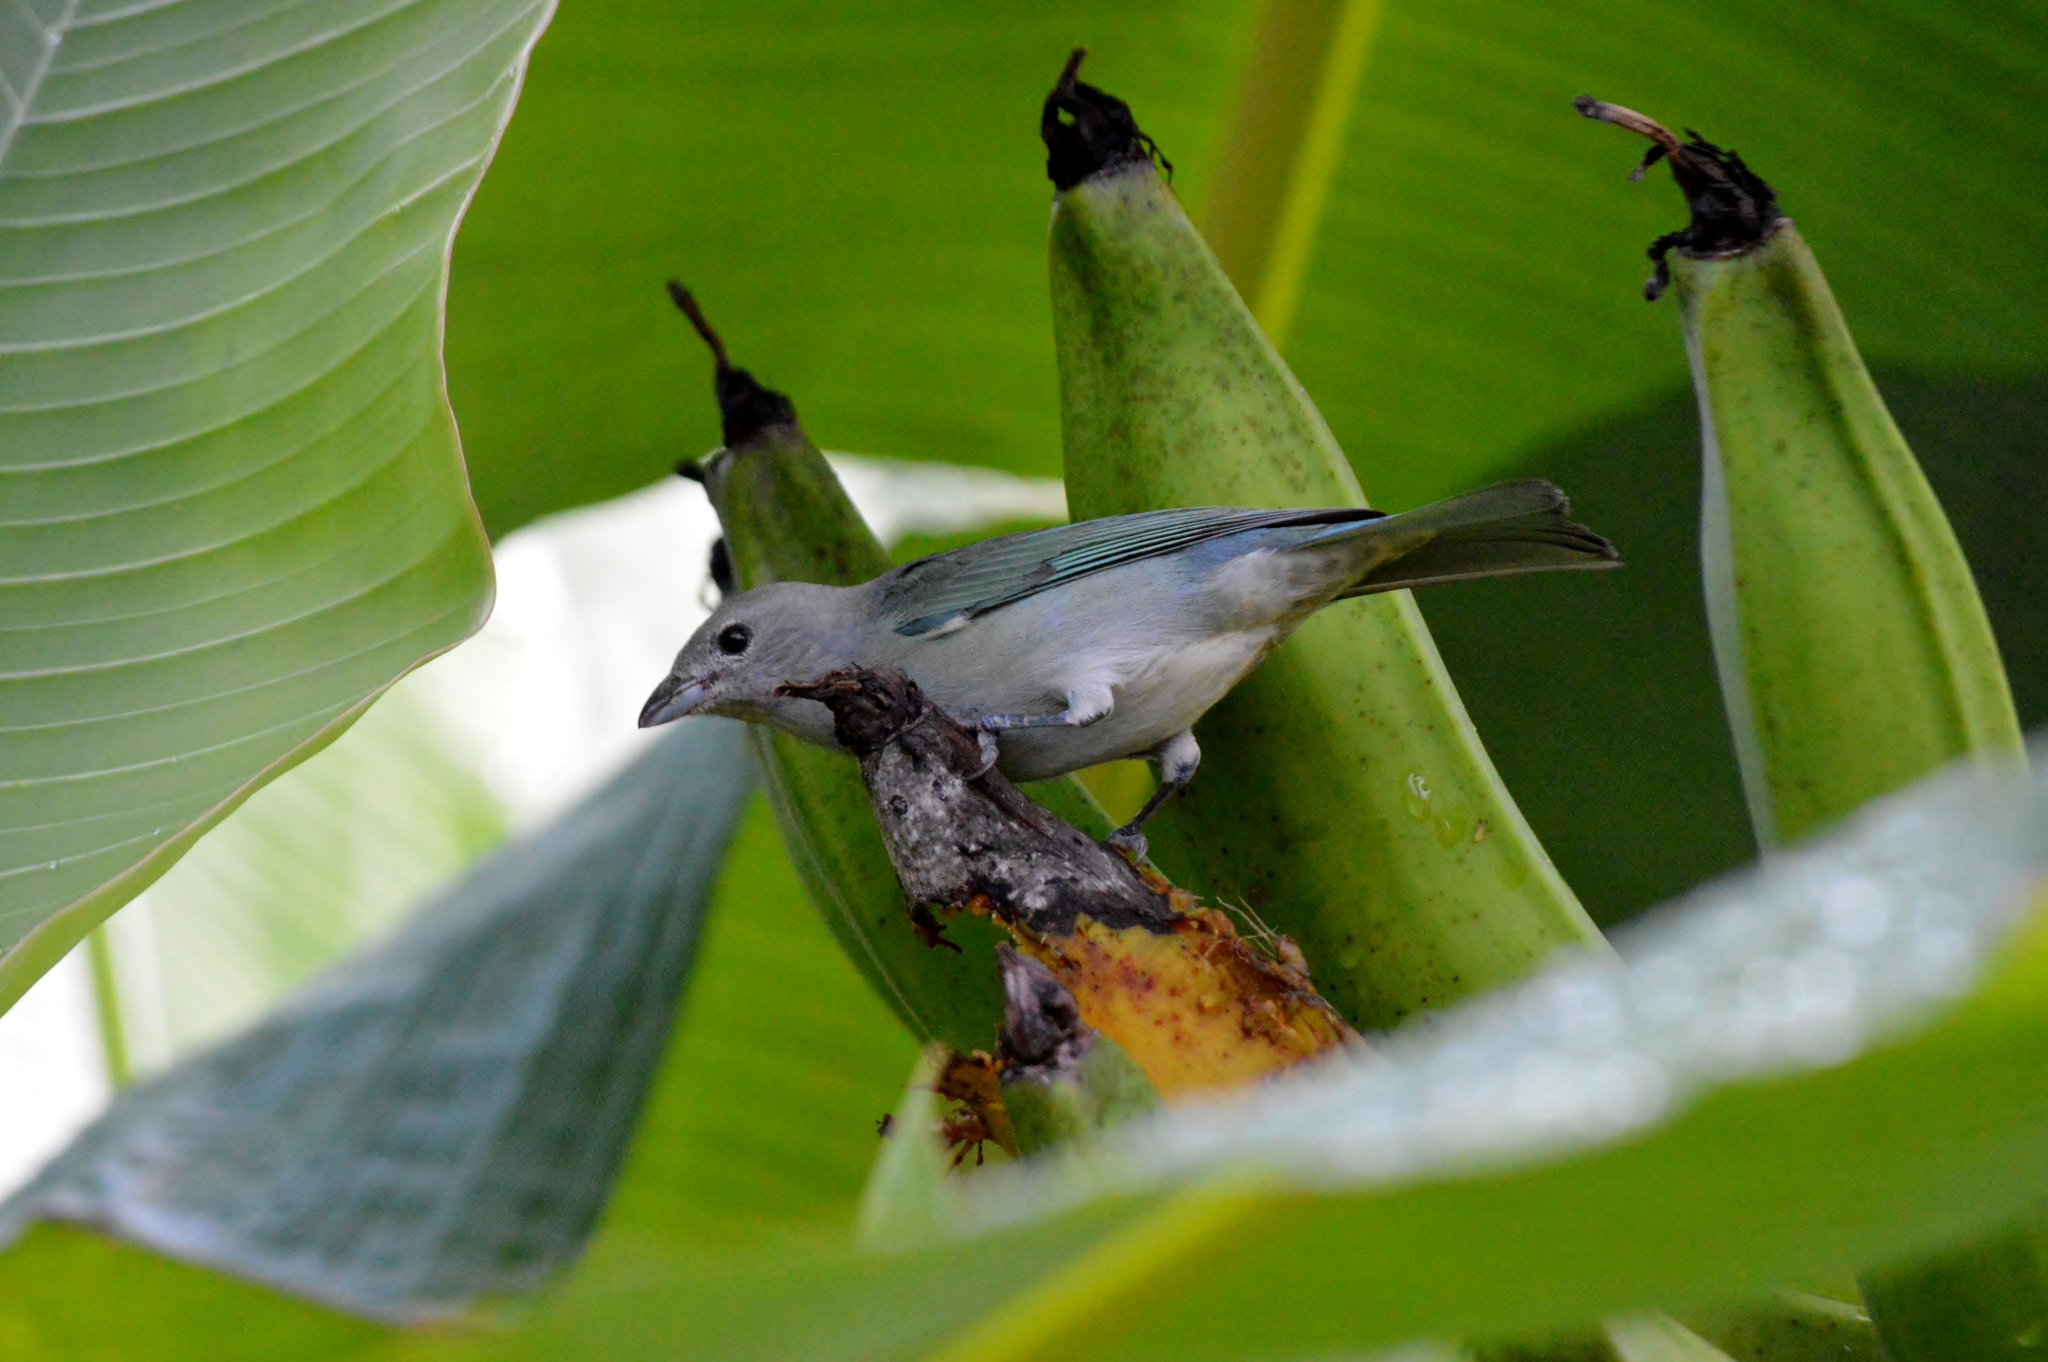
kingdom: Animalia
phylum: Chordata
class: Aves
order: Passeriformes
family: Thraupidae
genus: Thraupis
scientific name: Thraupis sayaca
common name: Sayaca tanager
